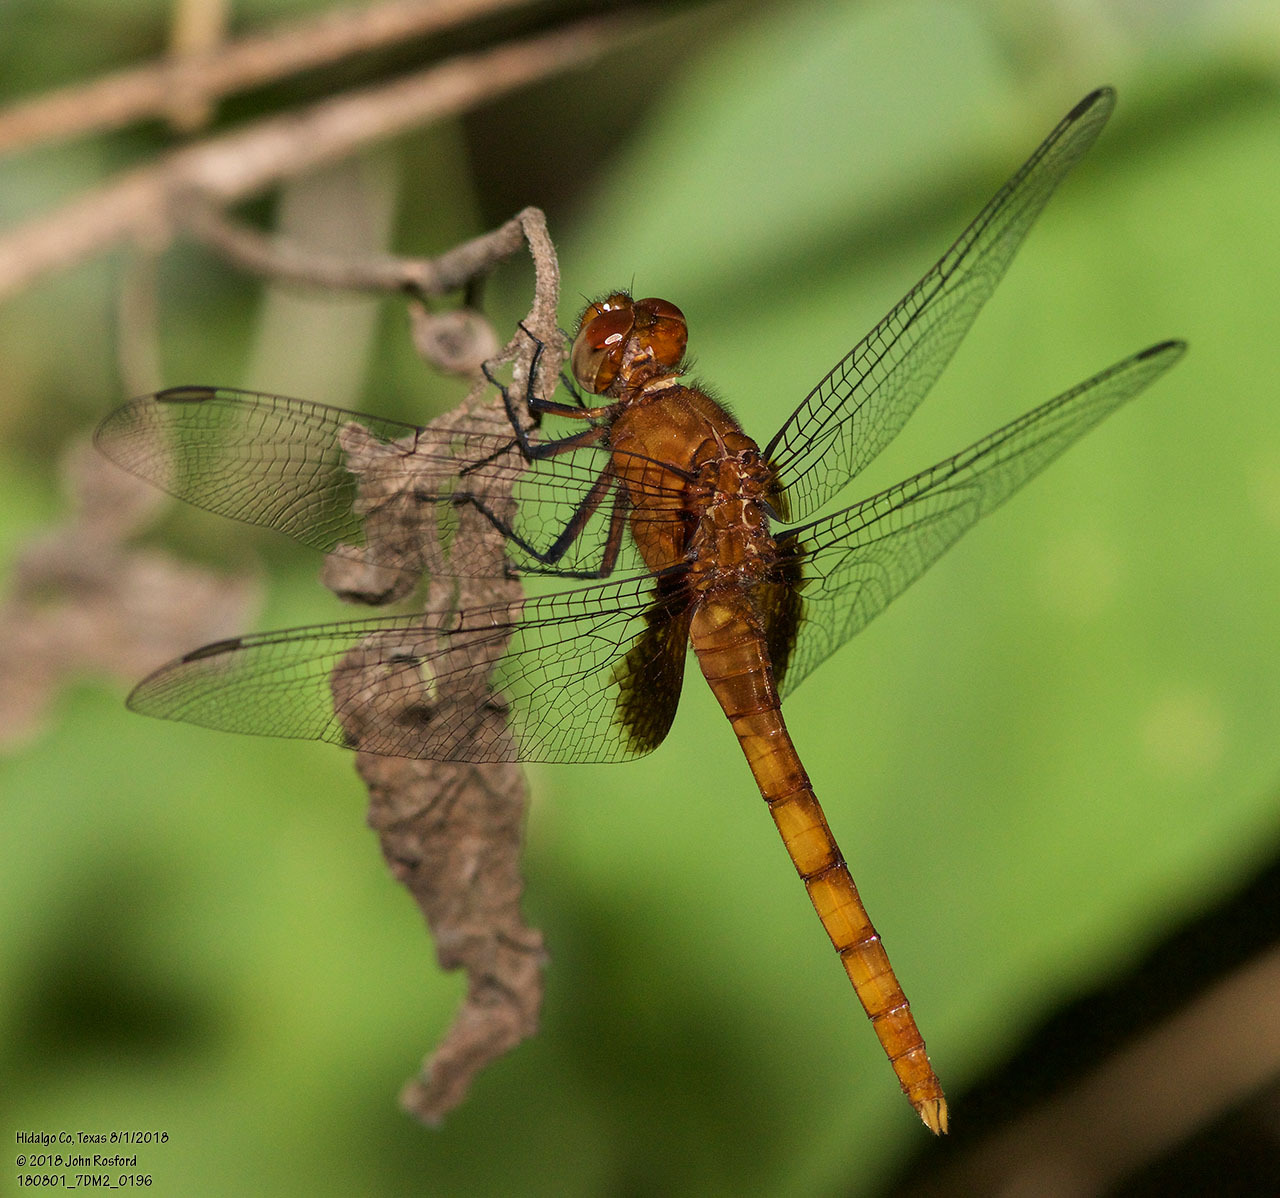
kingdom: Animalia
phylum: Arthropoda
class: Insecta
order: Odonata
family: Libellulidae
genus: Erythemis
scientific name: Erythemis mithroides
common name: Claret pondhawk
